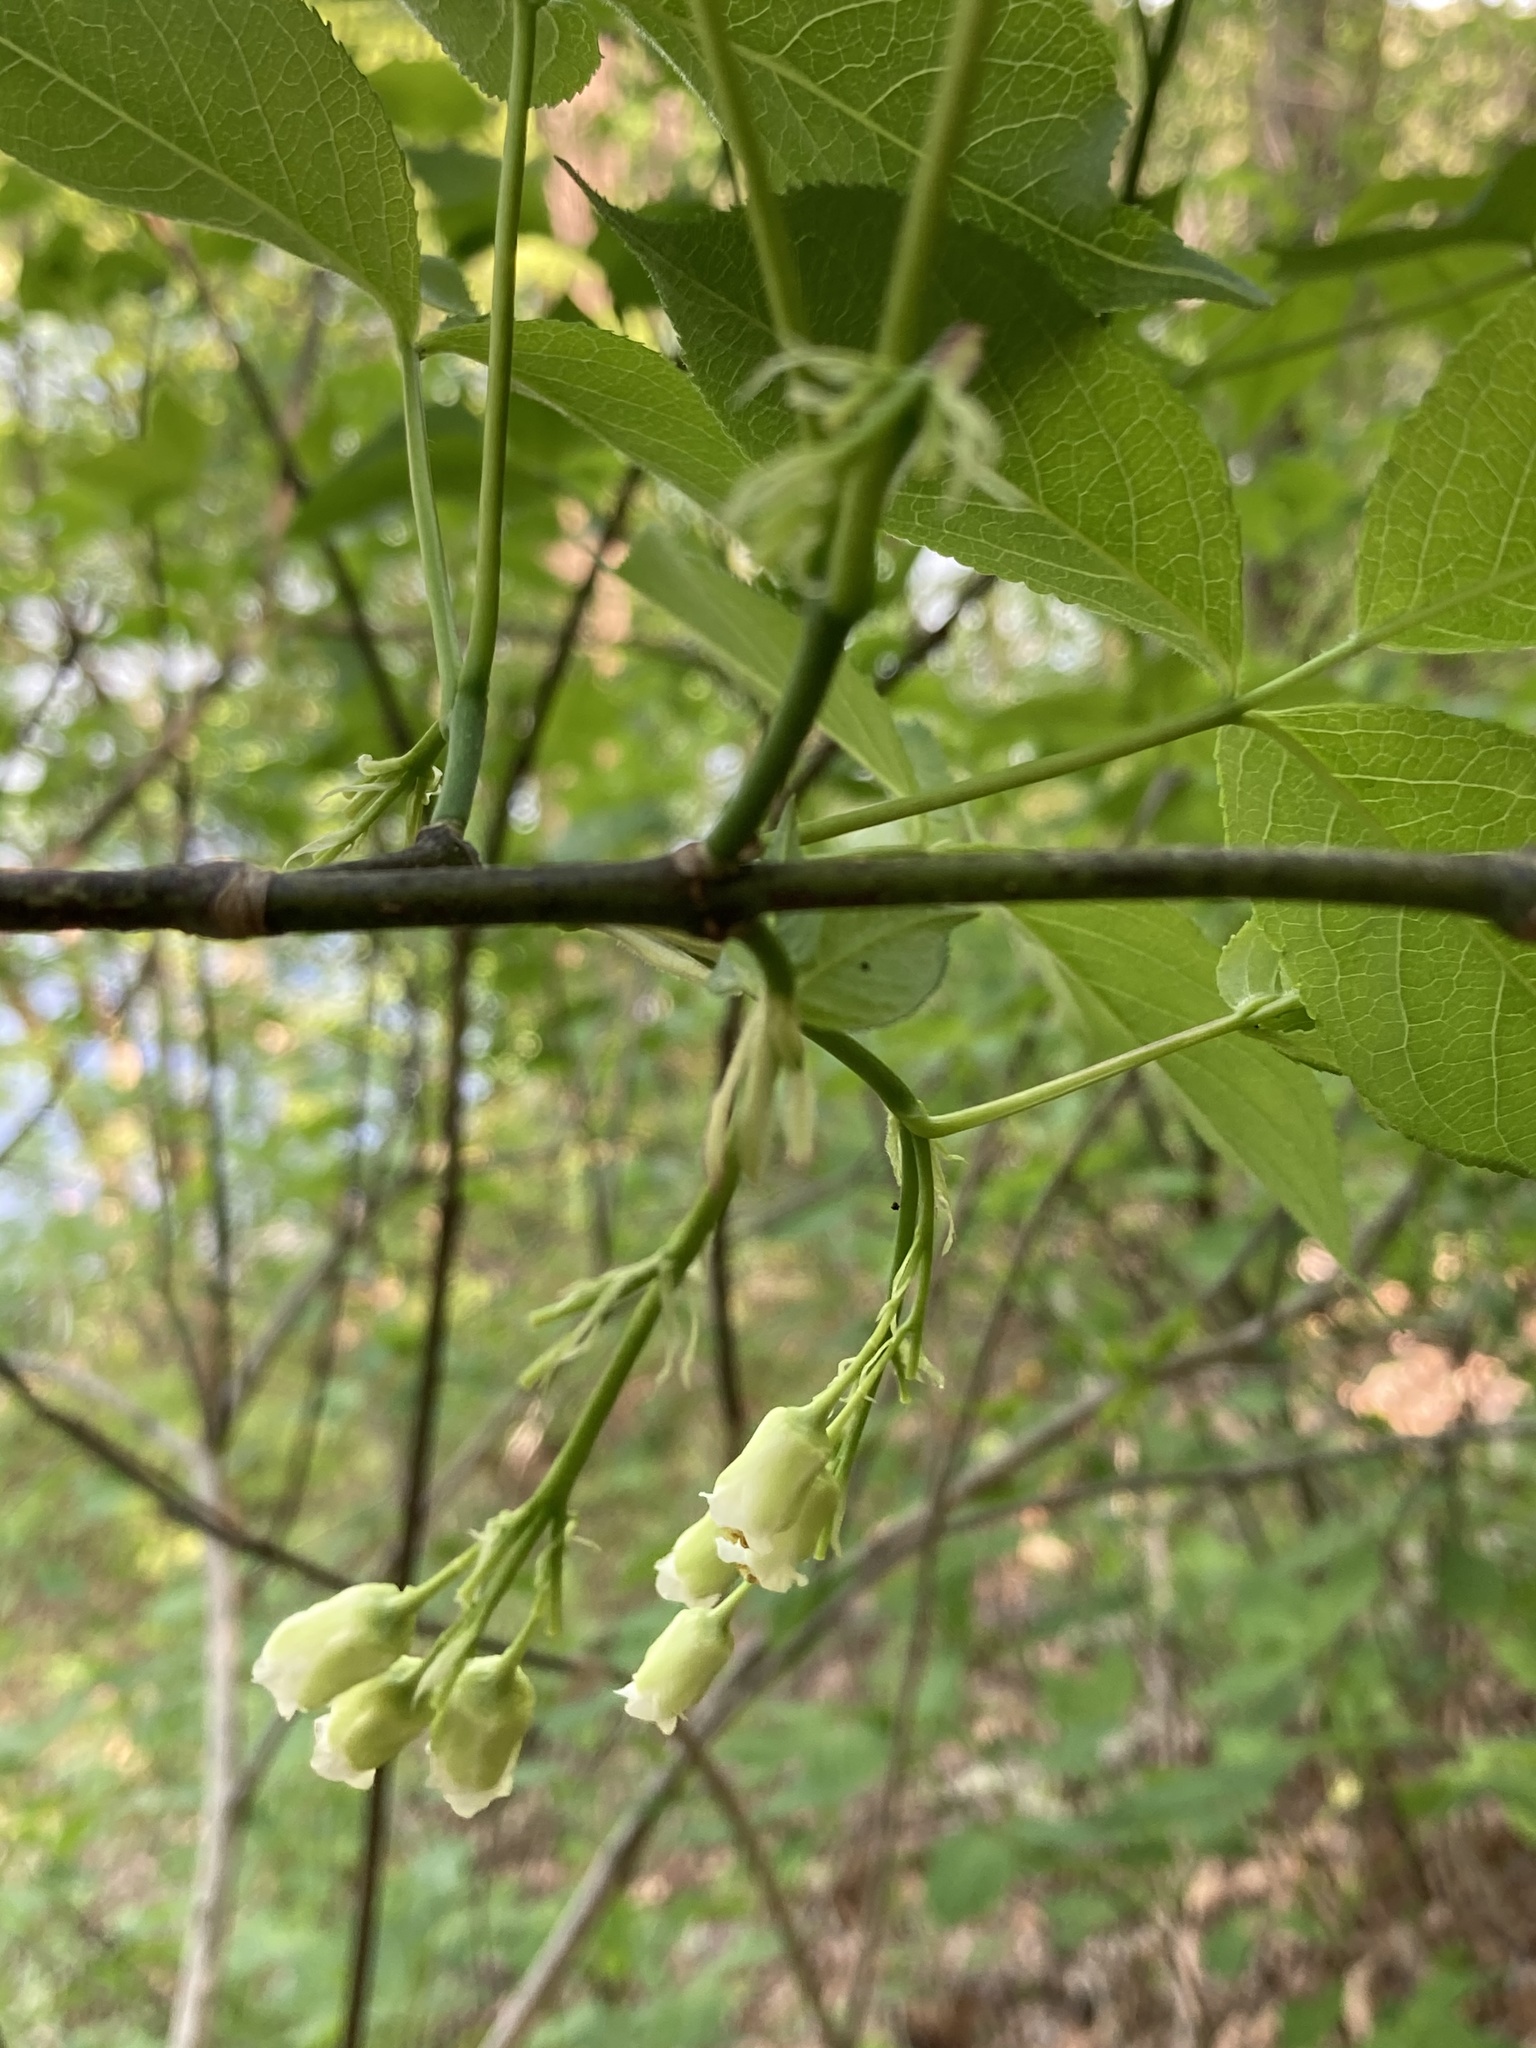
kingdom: Plantae
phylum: Tracheophyta
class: Magnoliopsida
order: Crossosomatales
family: Staphyleaceae
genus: Staphylea
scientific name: Staphylea trifolia
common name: American bladdernut
